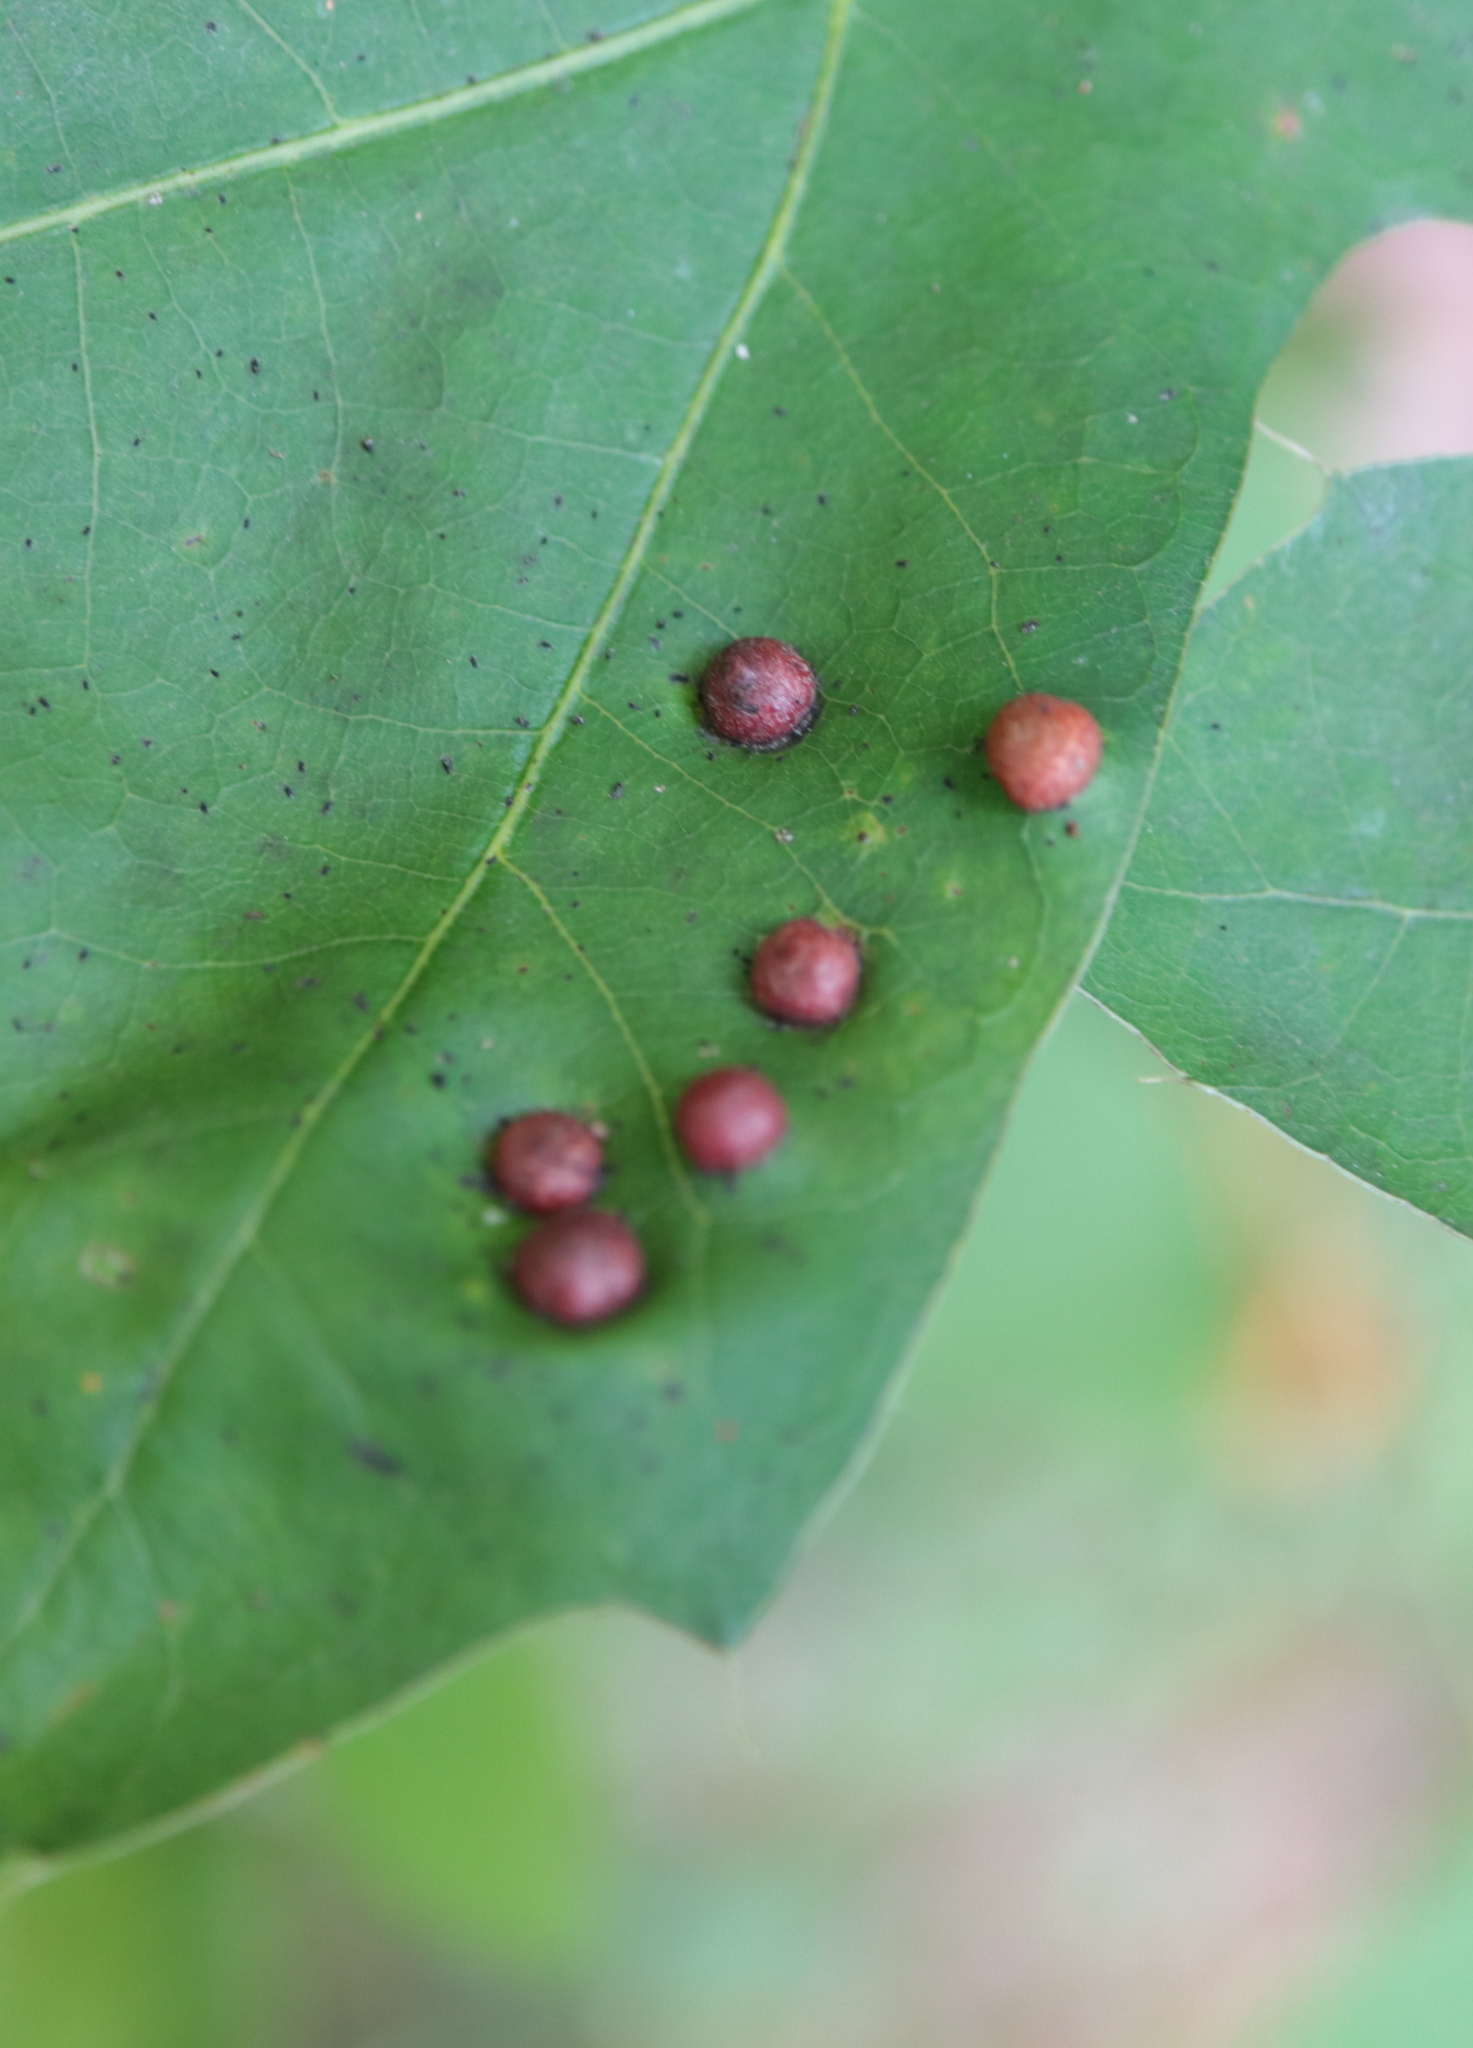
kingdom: Animalia
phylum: Arthropoda
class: Insecta
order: Diptera
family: Cecidomyiidae
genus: Polystepha
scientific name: Polystepha pilulae
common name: Oak leaf gall midge
